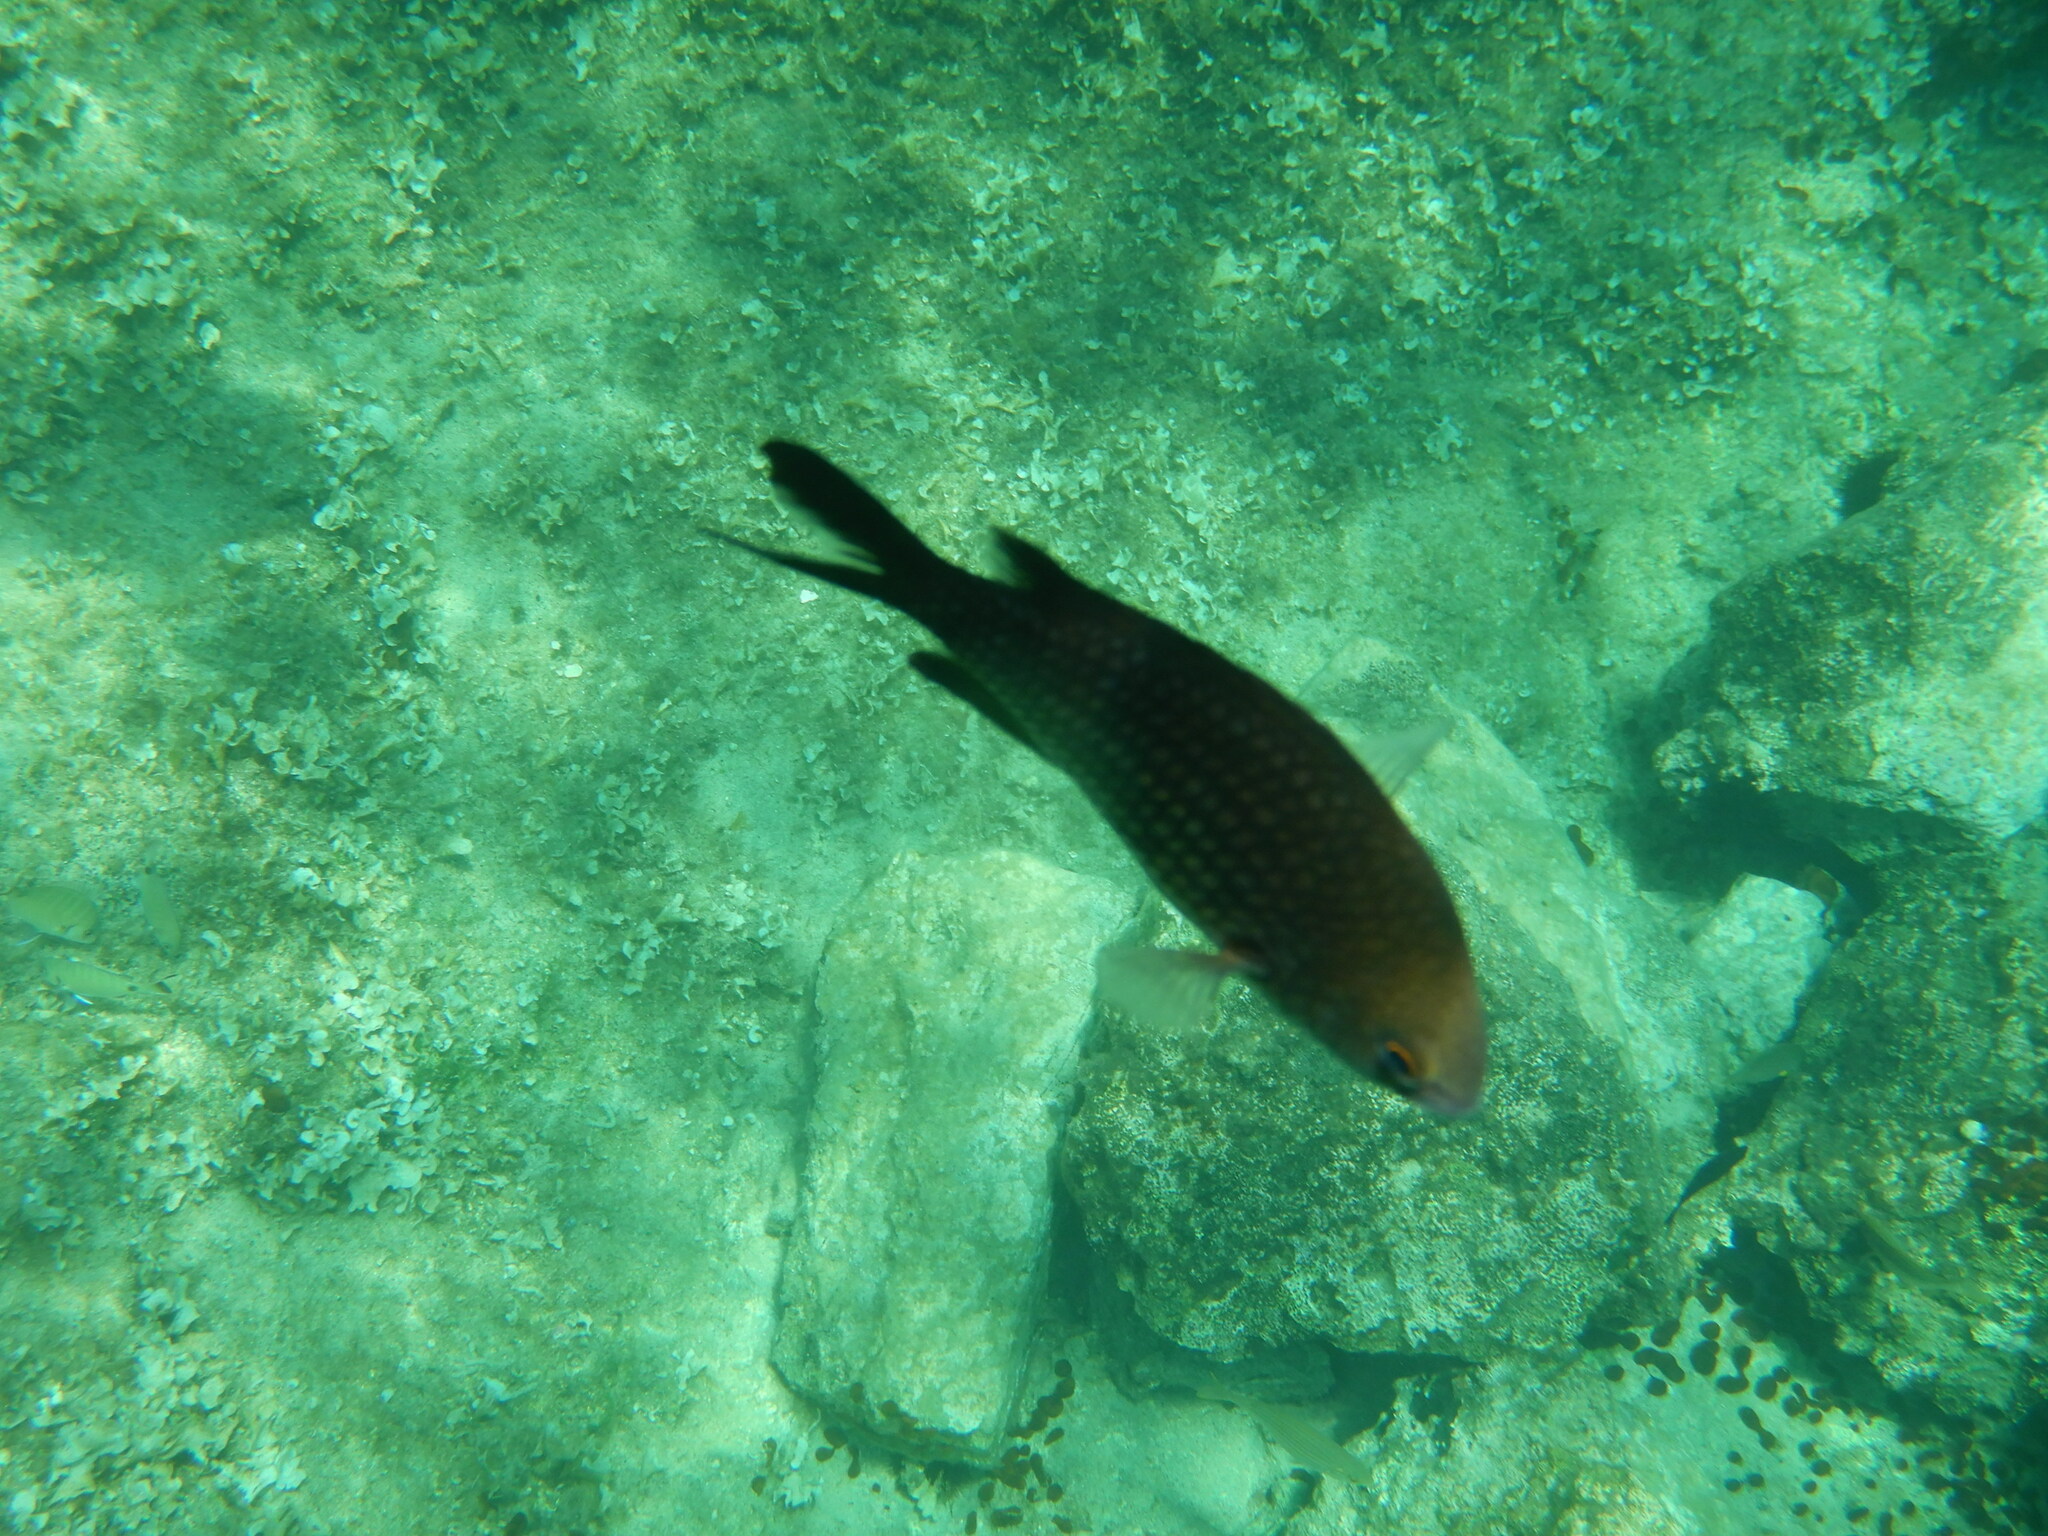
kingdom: Animalia
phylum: Chordata
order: Perciformes
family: Pomacentridae
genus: Chromis
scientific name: Chromis chromis
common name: Damselfish
